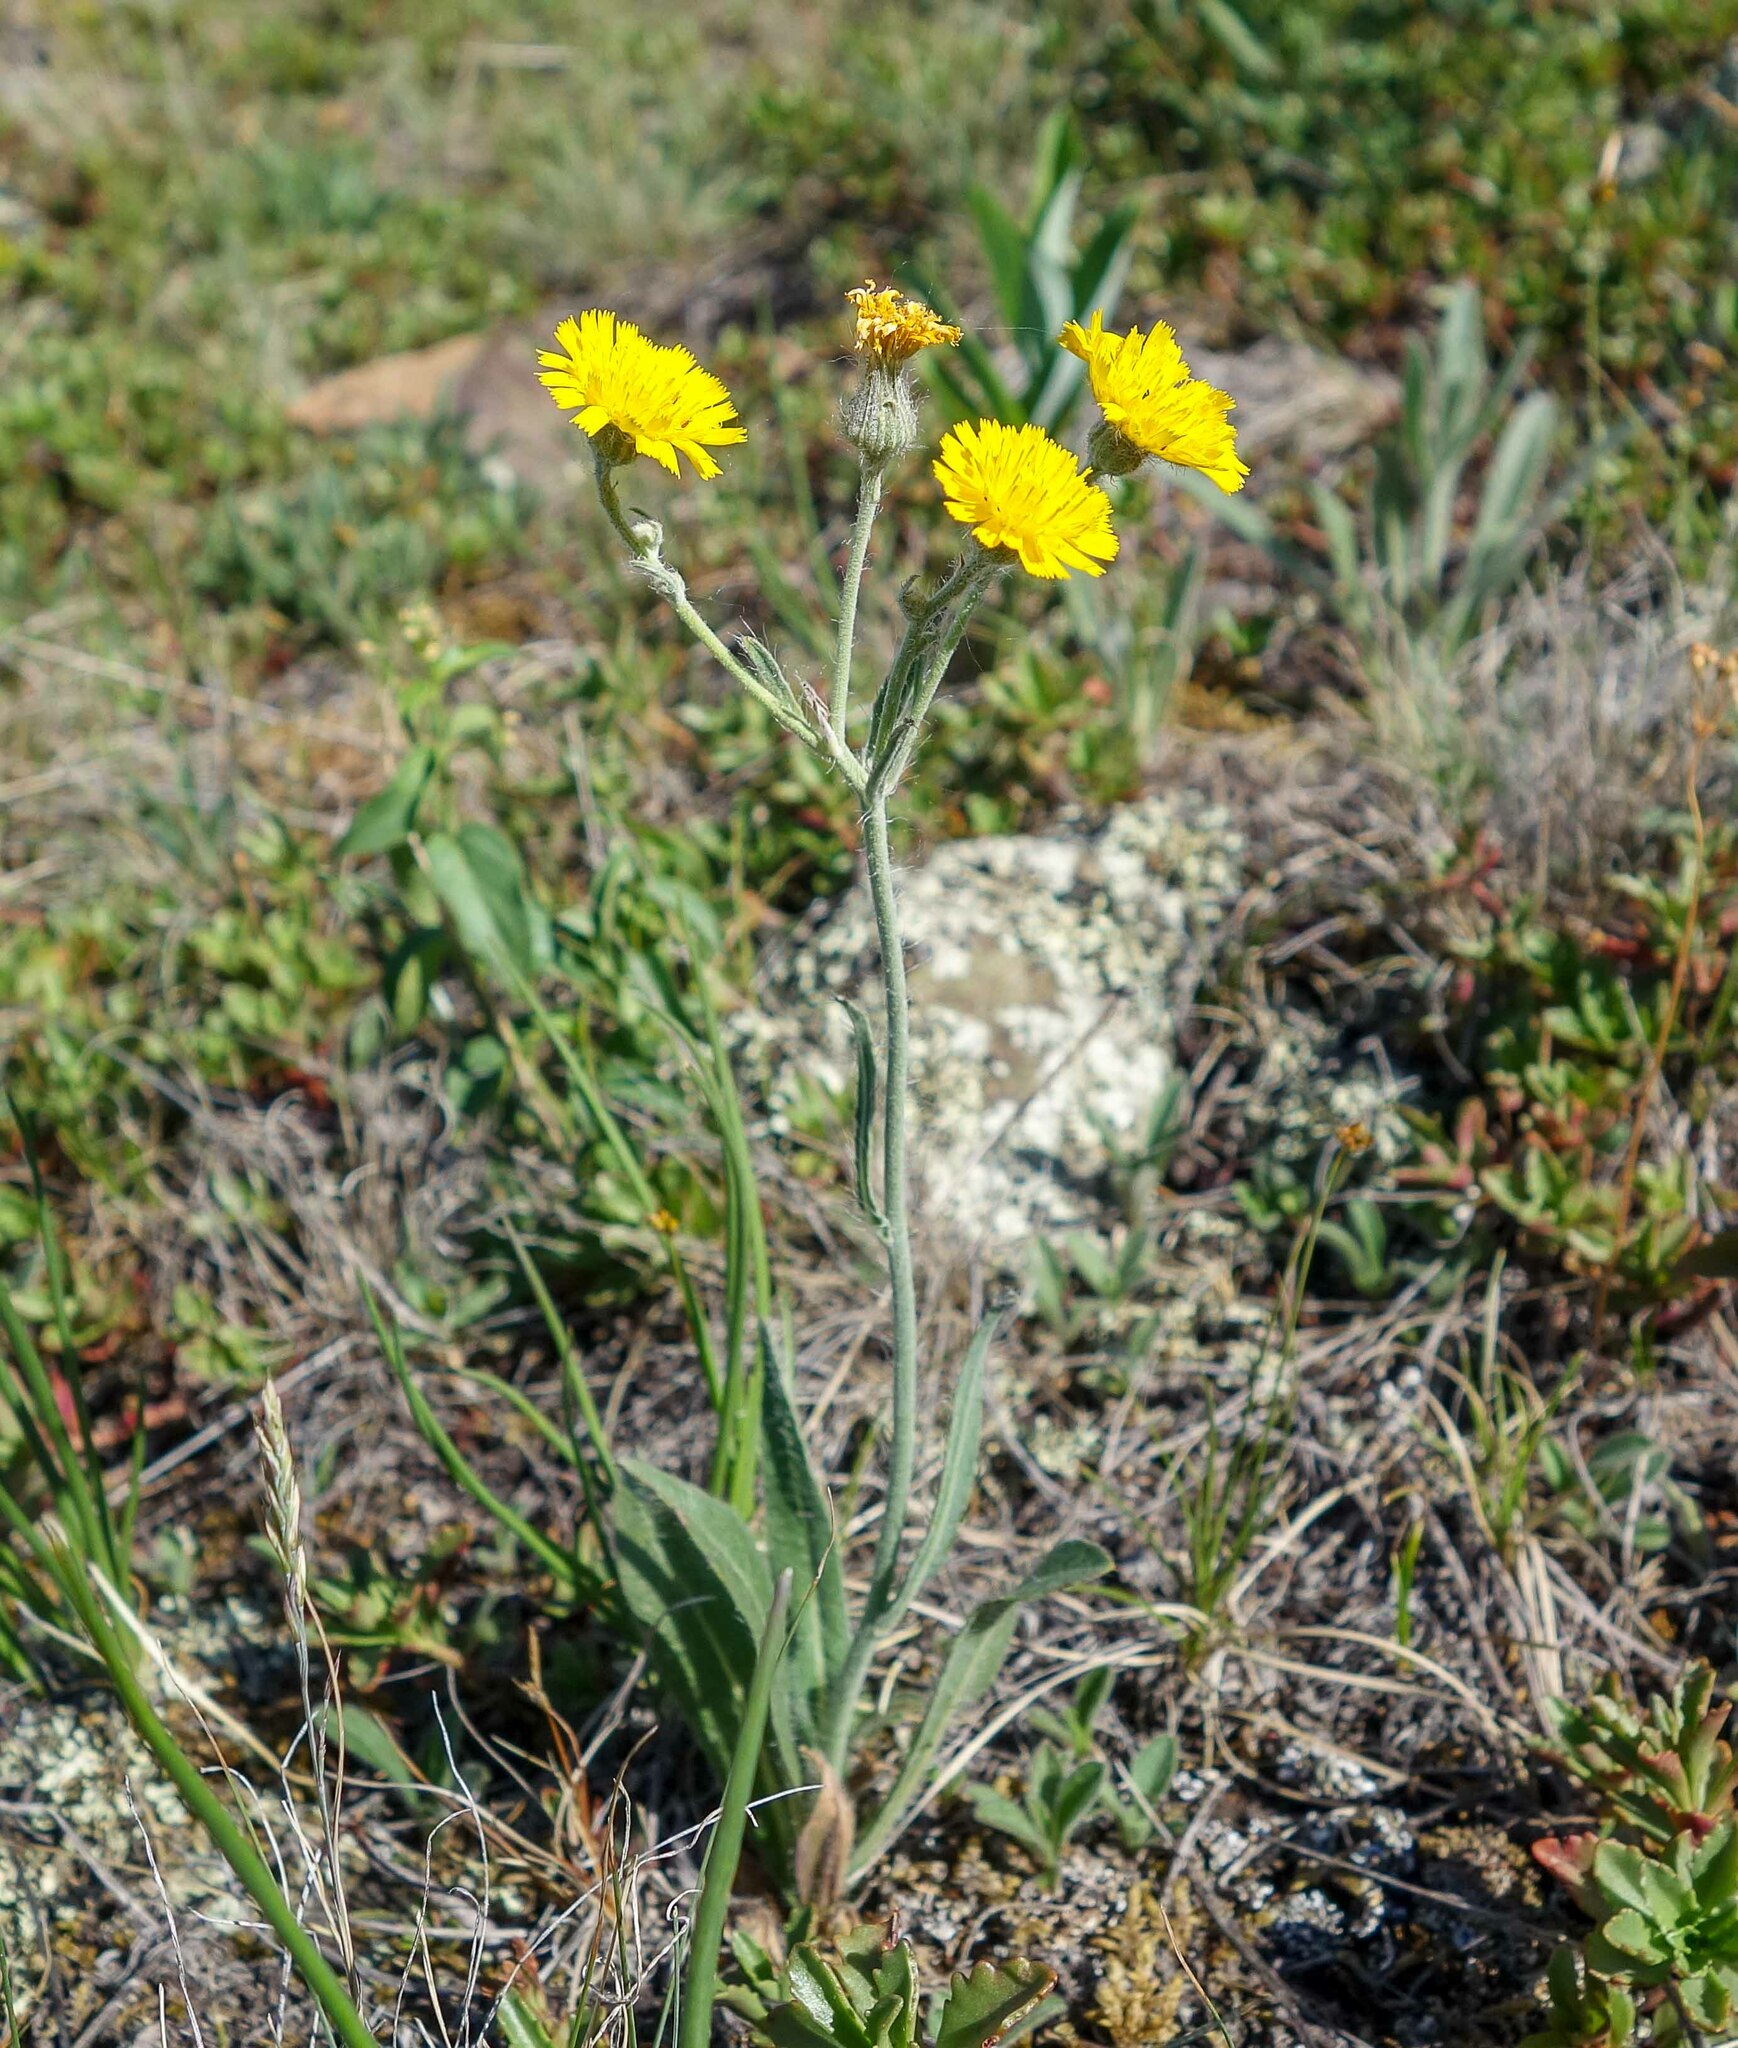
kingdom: Plantae
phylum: Tracheophyta
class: Magnoliopsida
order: Asterales
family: Asteraceae
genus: Pilosella
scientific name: Pilosella echioides
